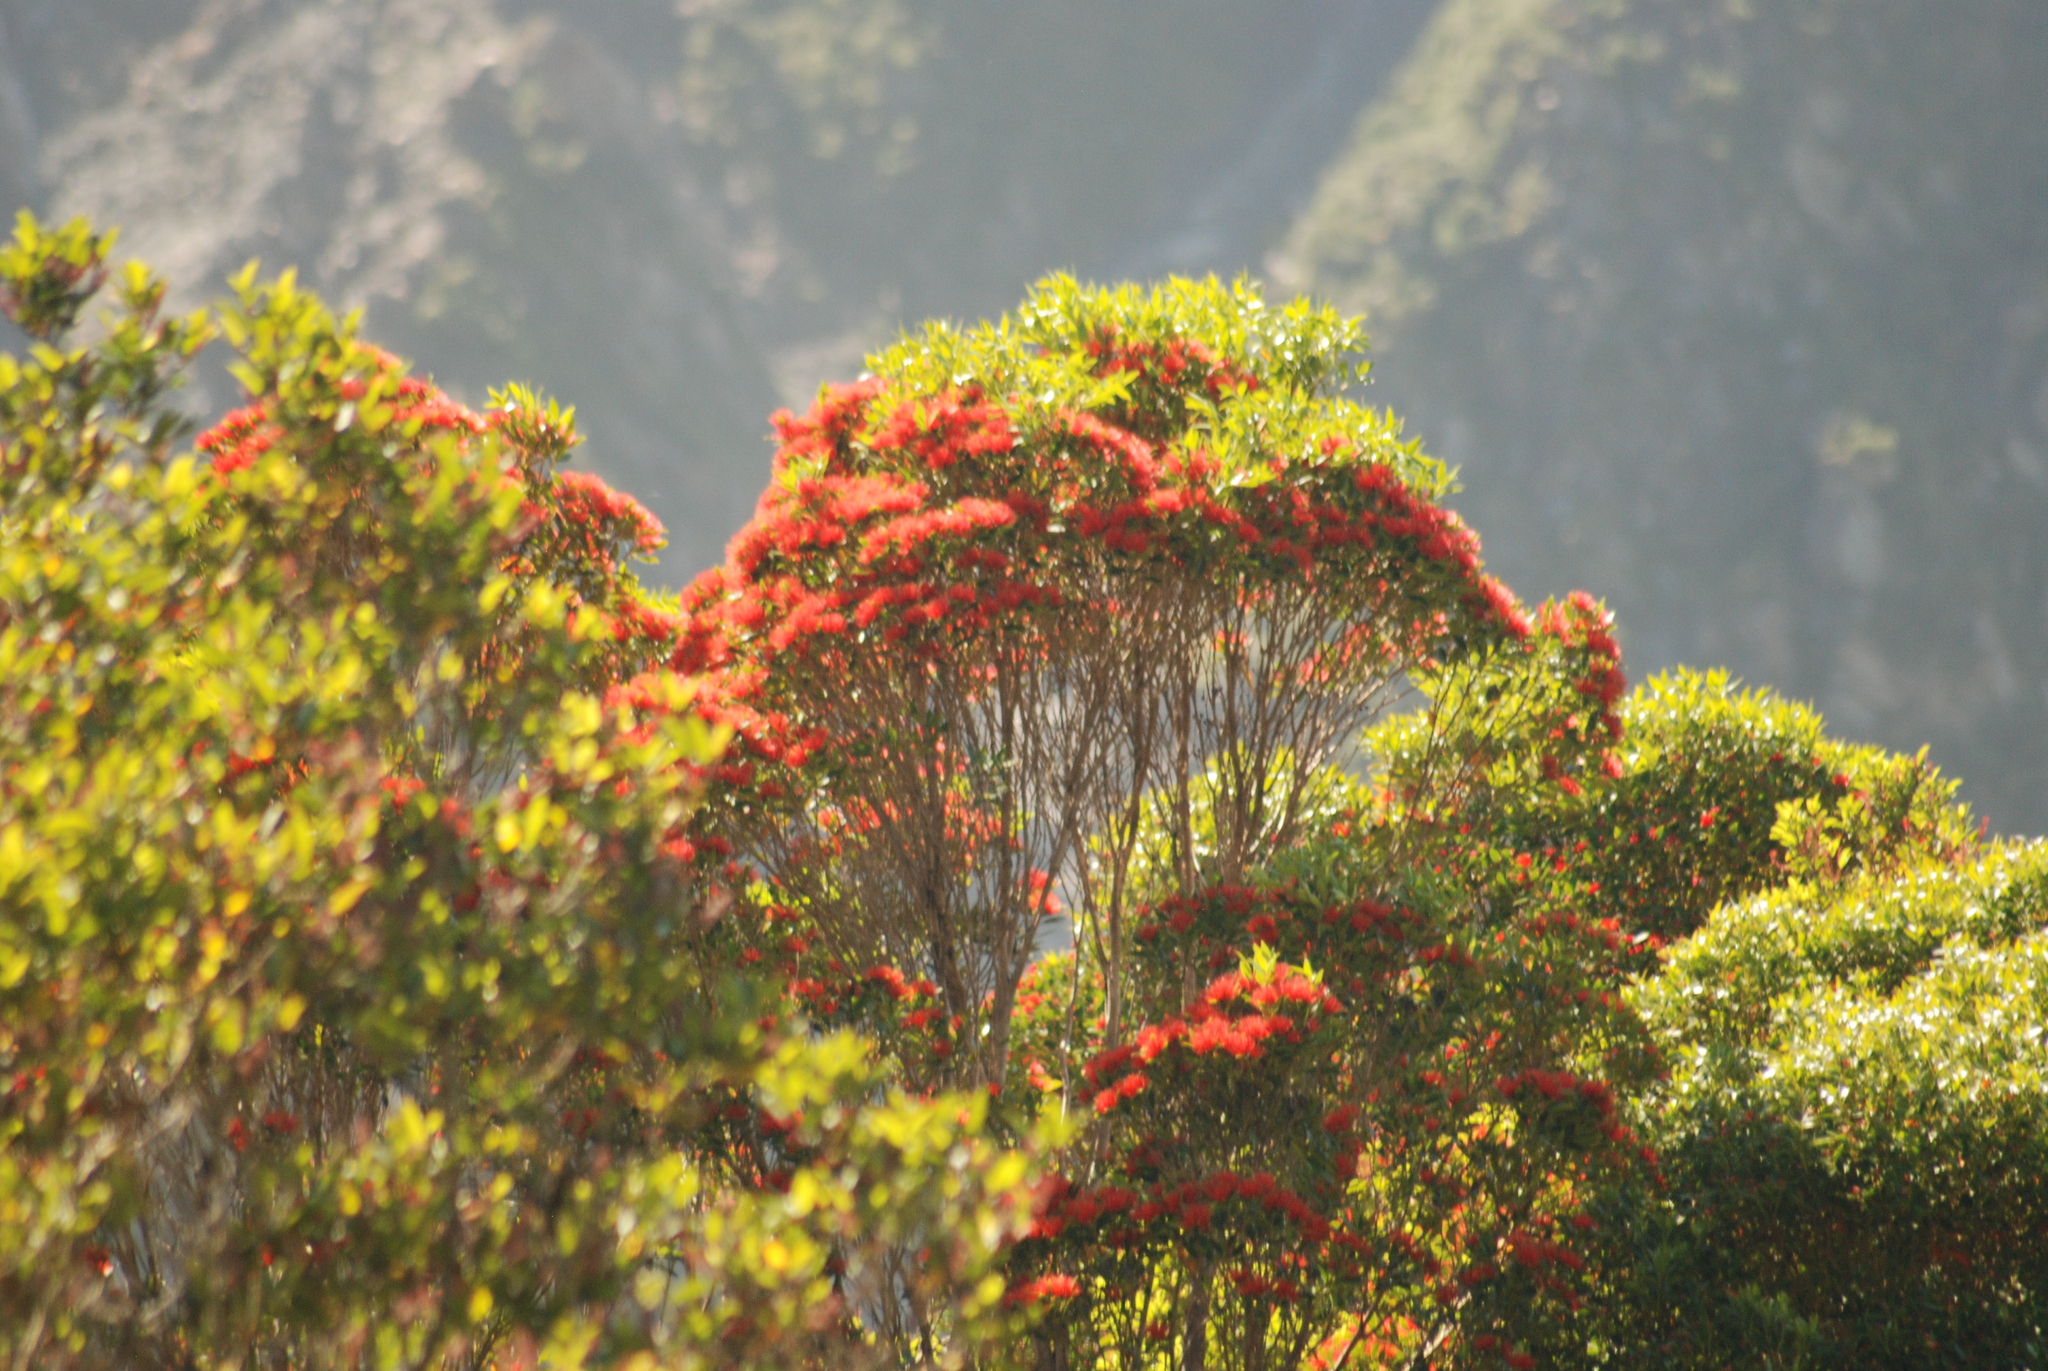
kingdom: Plantae
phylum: Tracheophyta
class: Magnoliopsida
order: Myrtales
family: Myrtaceae
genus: Metrosideros
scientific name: Metrosideros umbellata
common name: Southern rata
